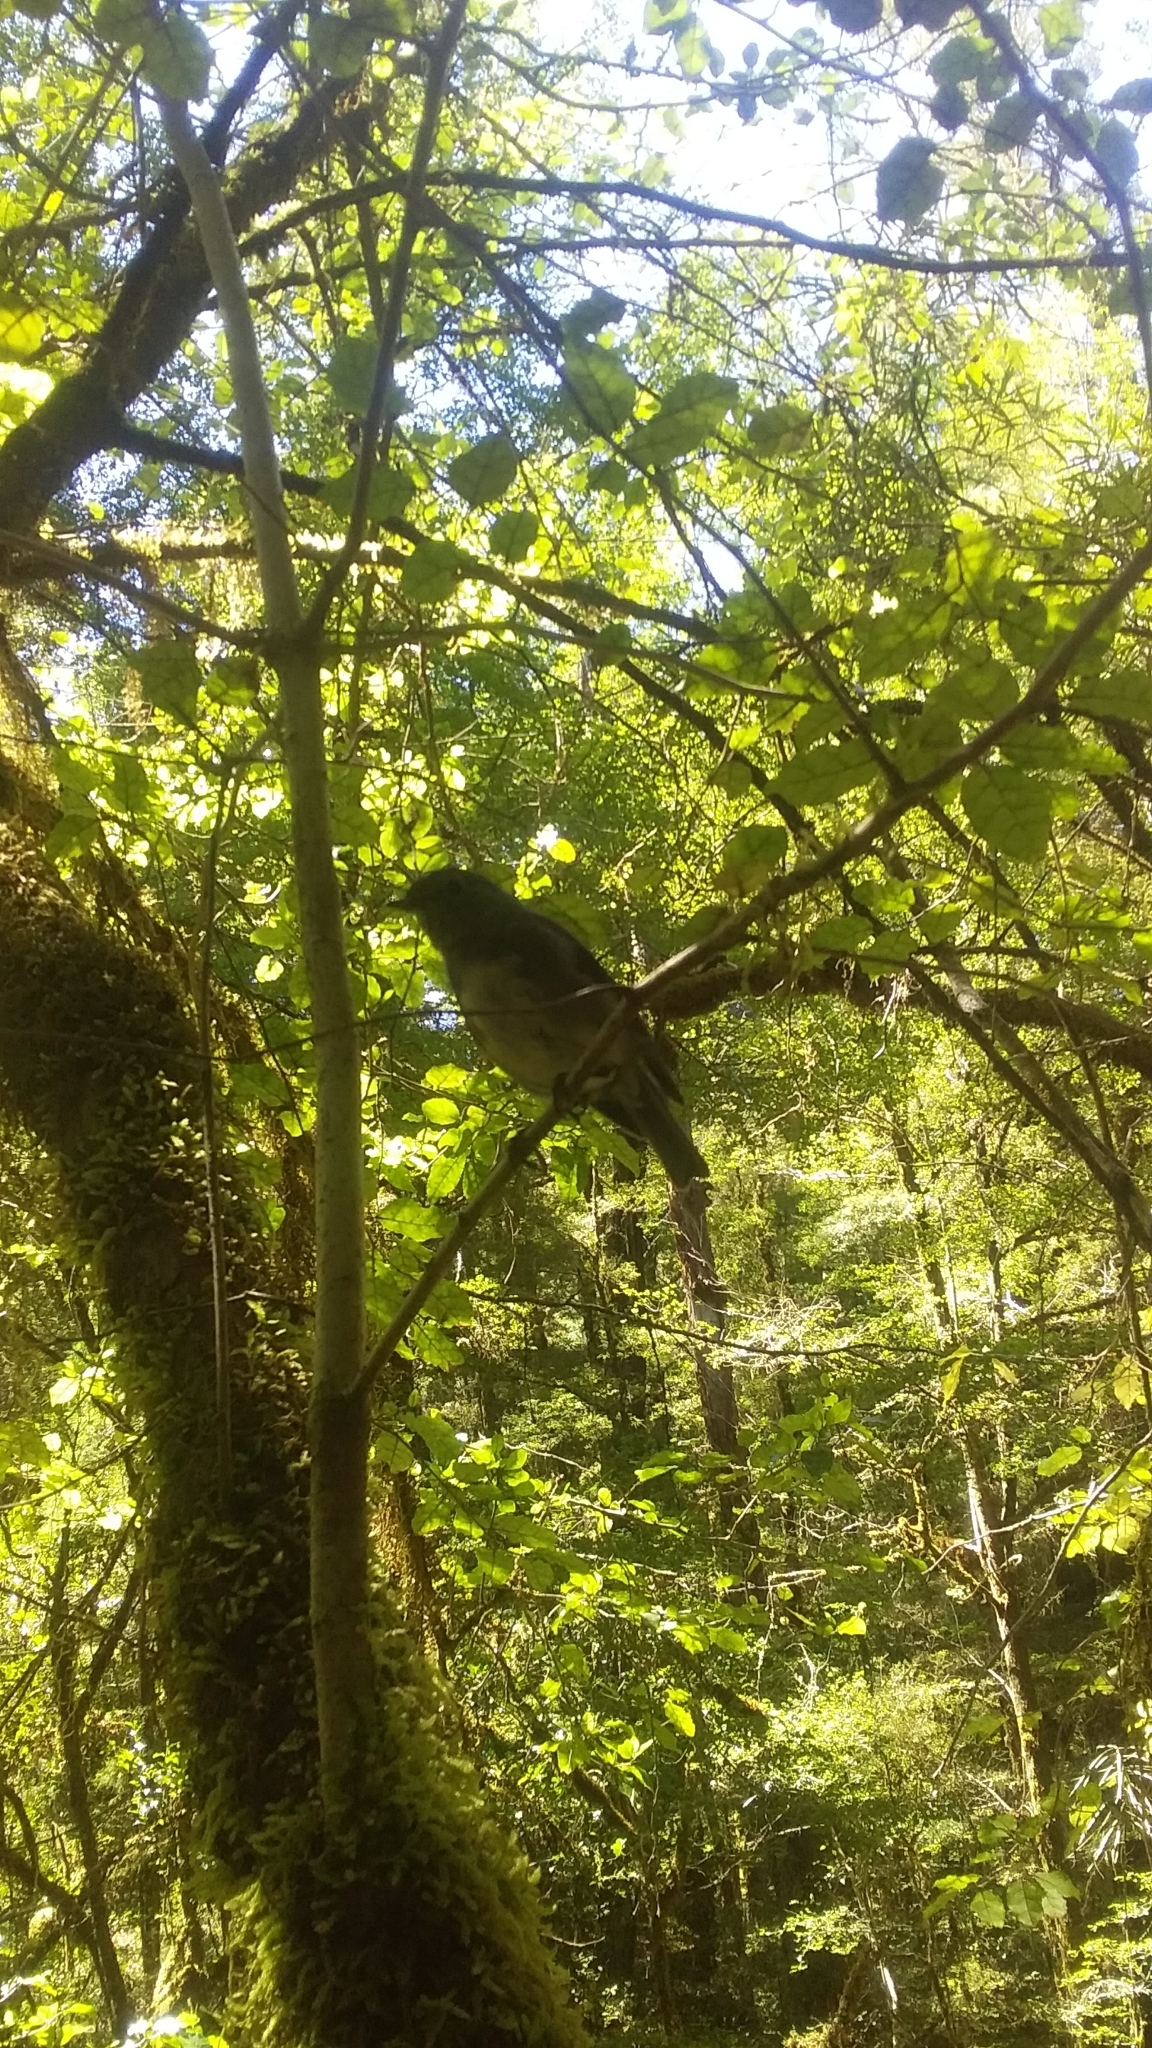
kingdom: Animalia
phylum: Chordata
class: Aves
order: Passeriformes
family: Petroicidae
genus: Petroica
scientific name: Petroica australis
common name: New zealand robin
